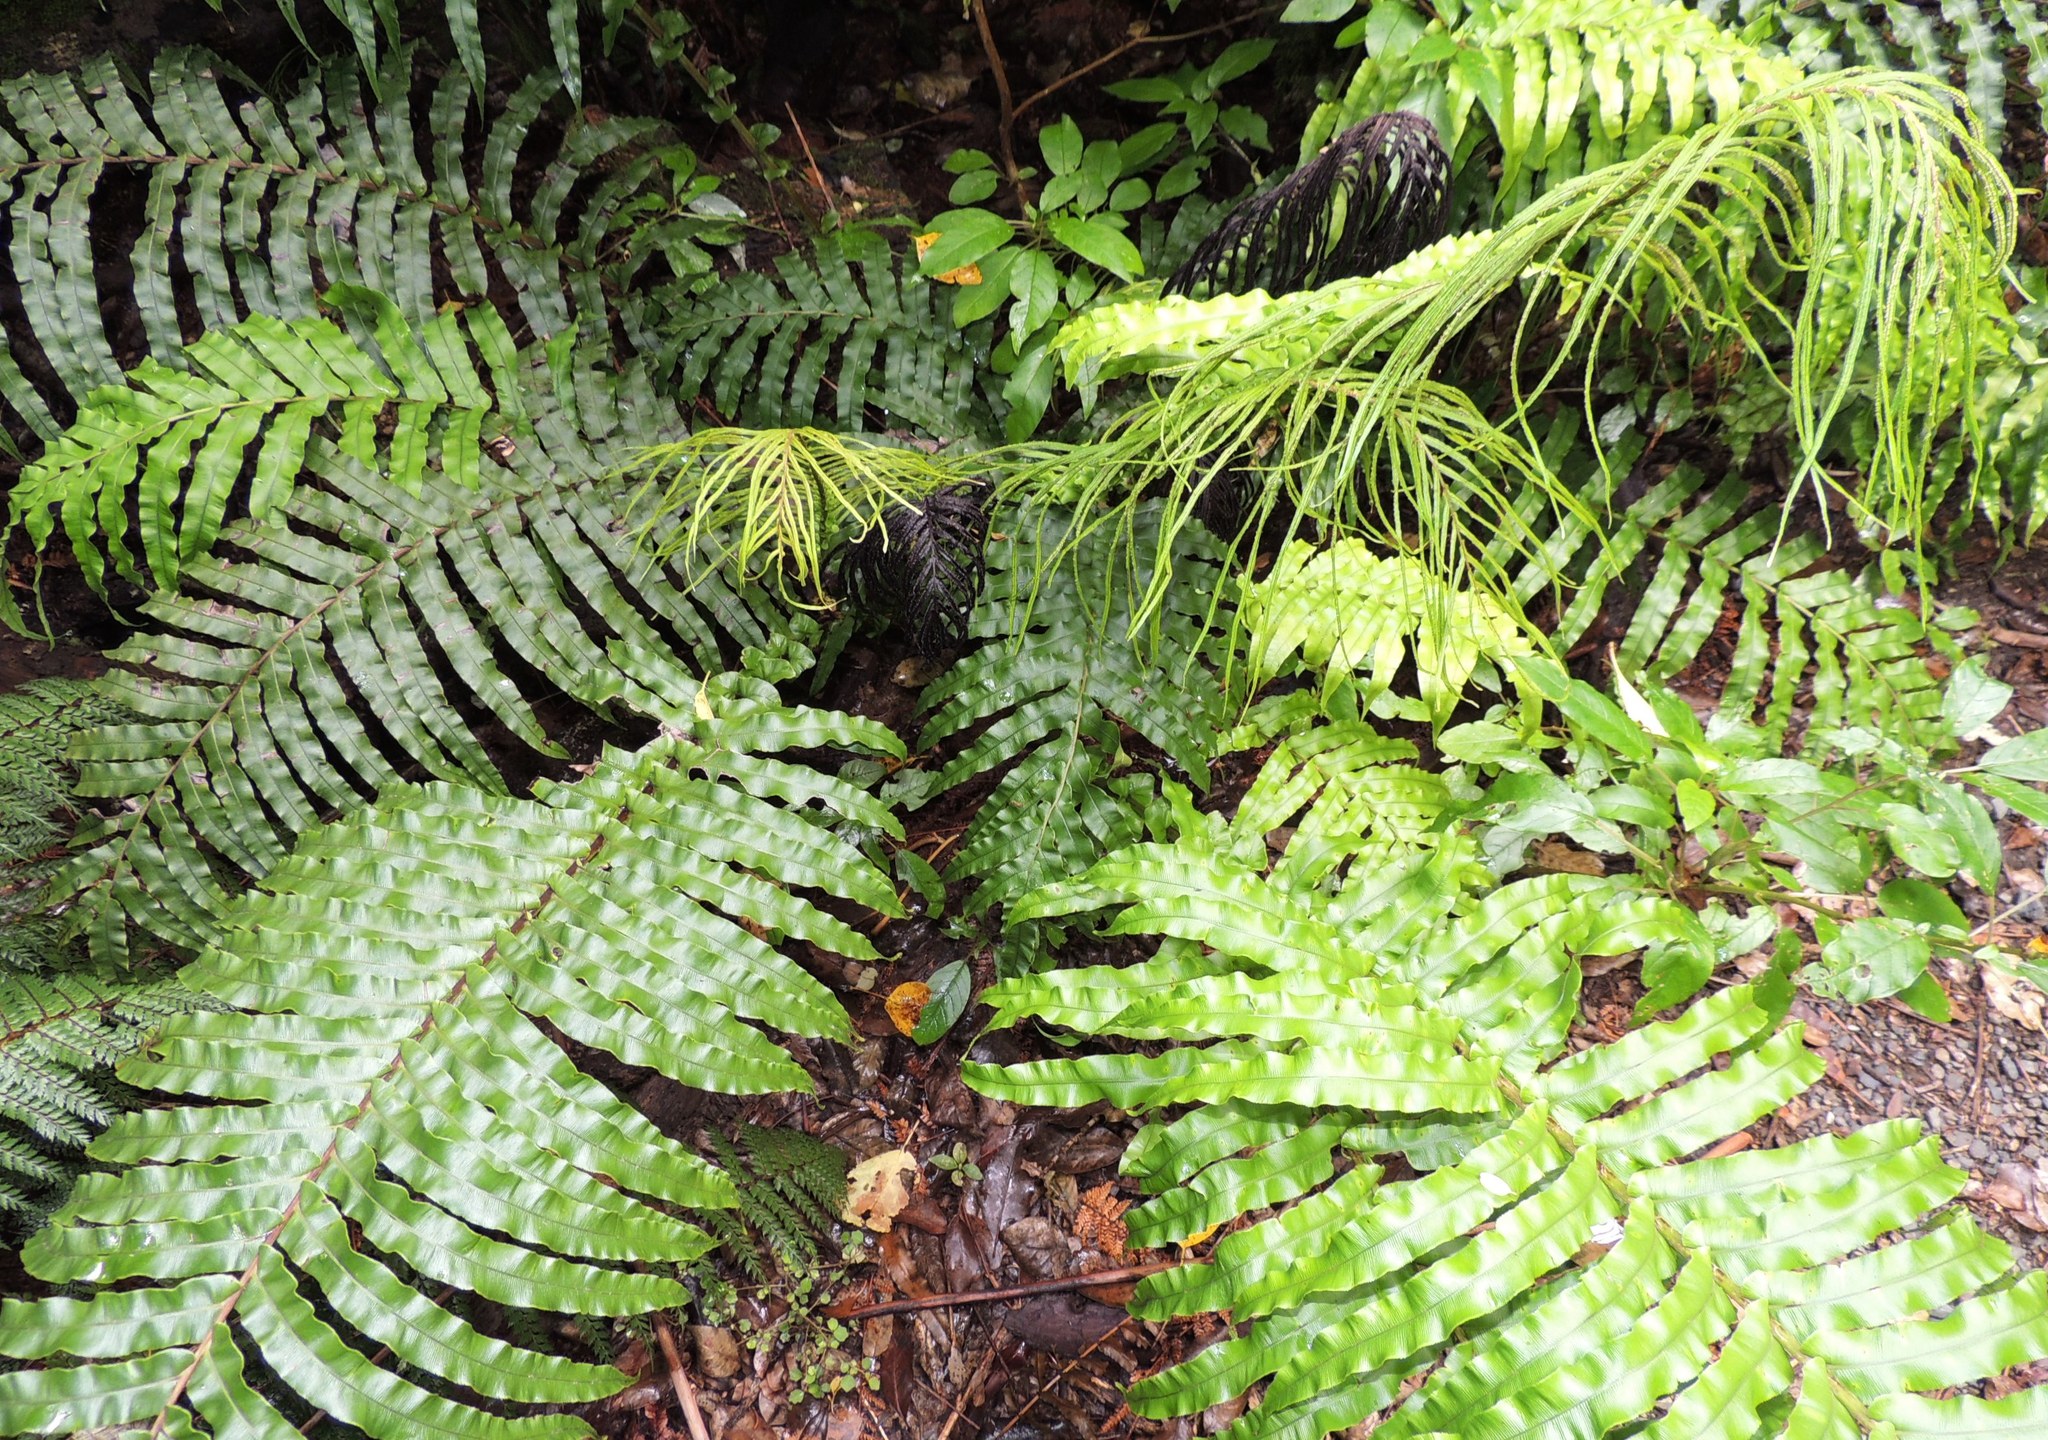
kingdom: Plantae
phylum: Tracheophyta
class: Polypodiopsida
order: Polypodiales
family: Blechnaceae
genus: Parablechnum
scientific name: Parablechnum novae-zelandiae
